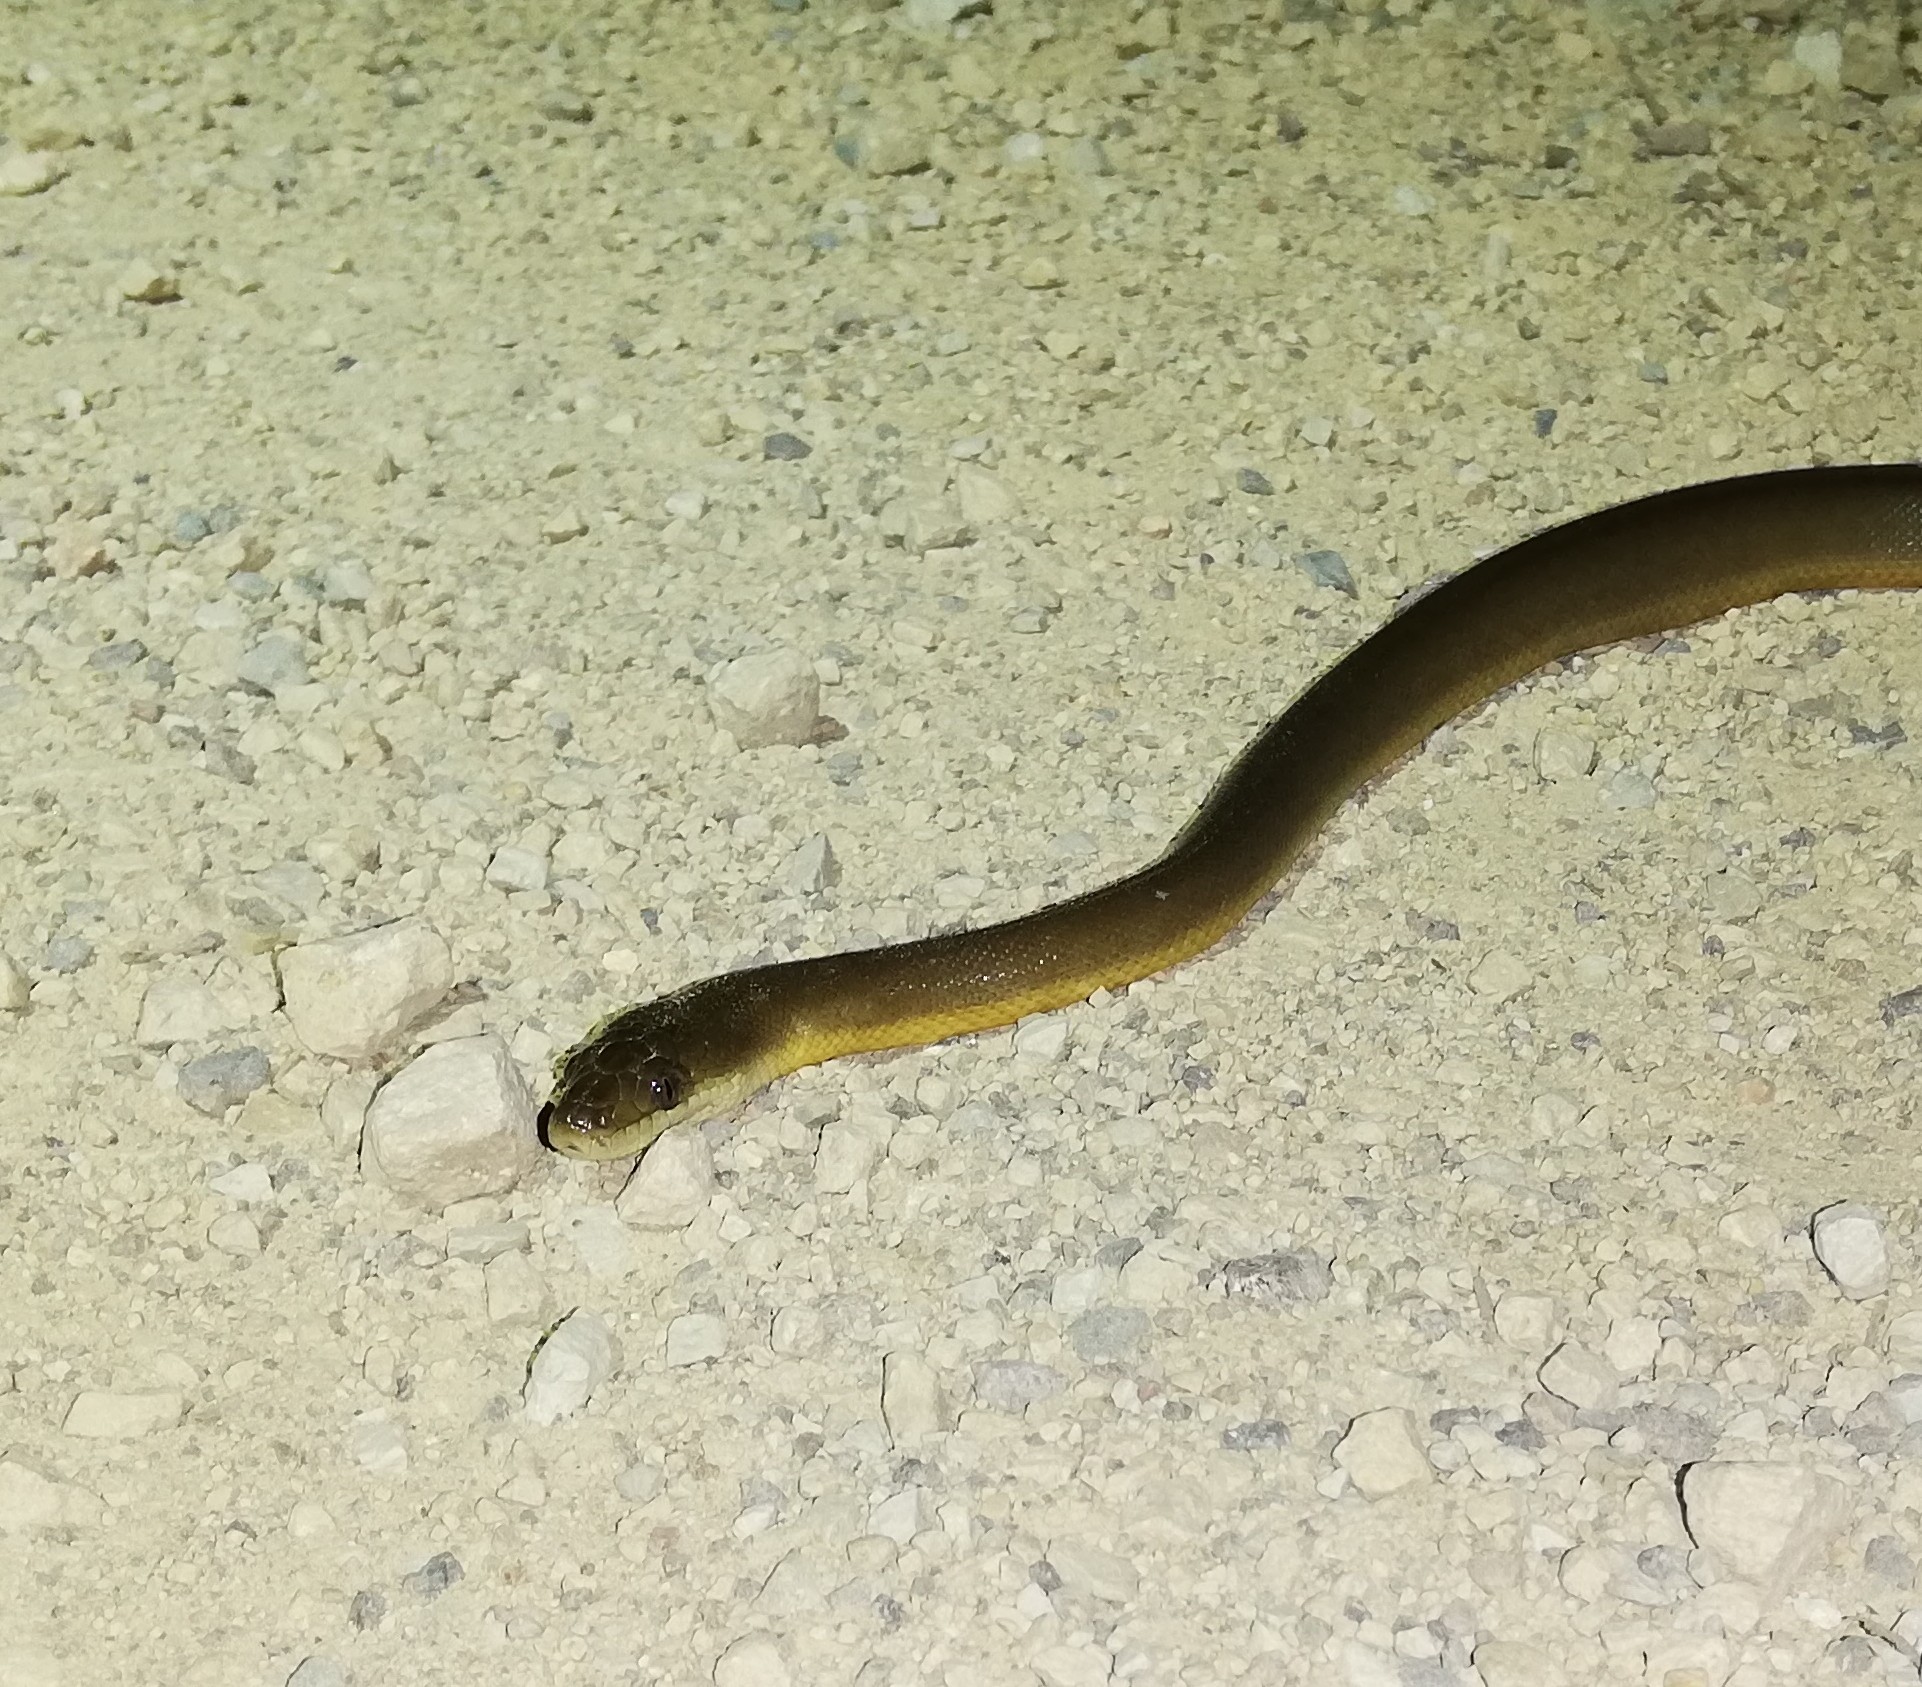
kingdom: Animalia
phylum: Chordata
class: Squamata
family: Pythonidae
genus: Liasis
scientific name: Liasis fuscus
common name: Brown water python
